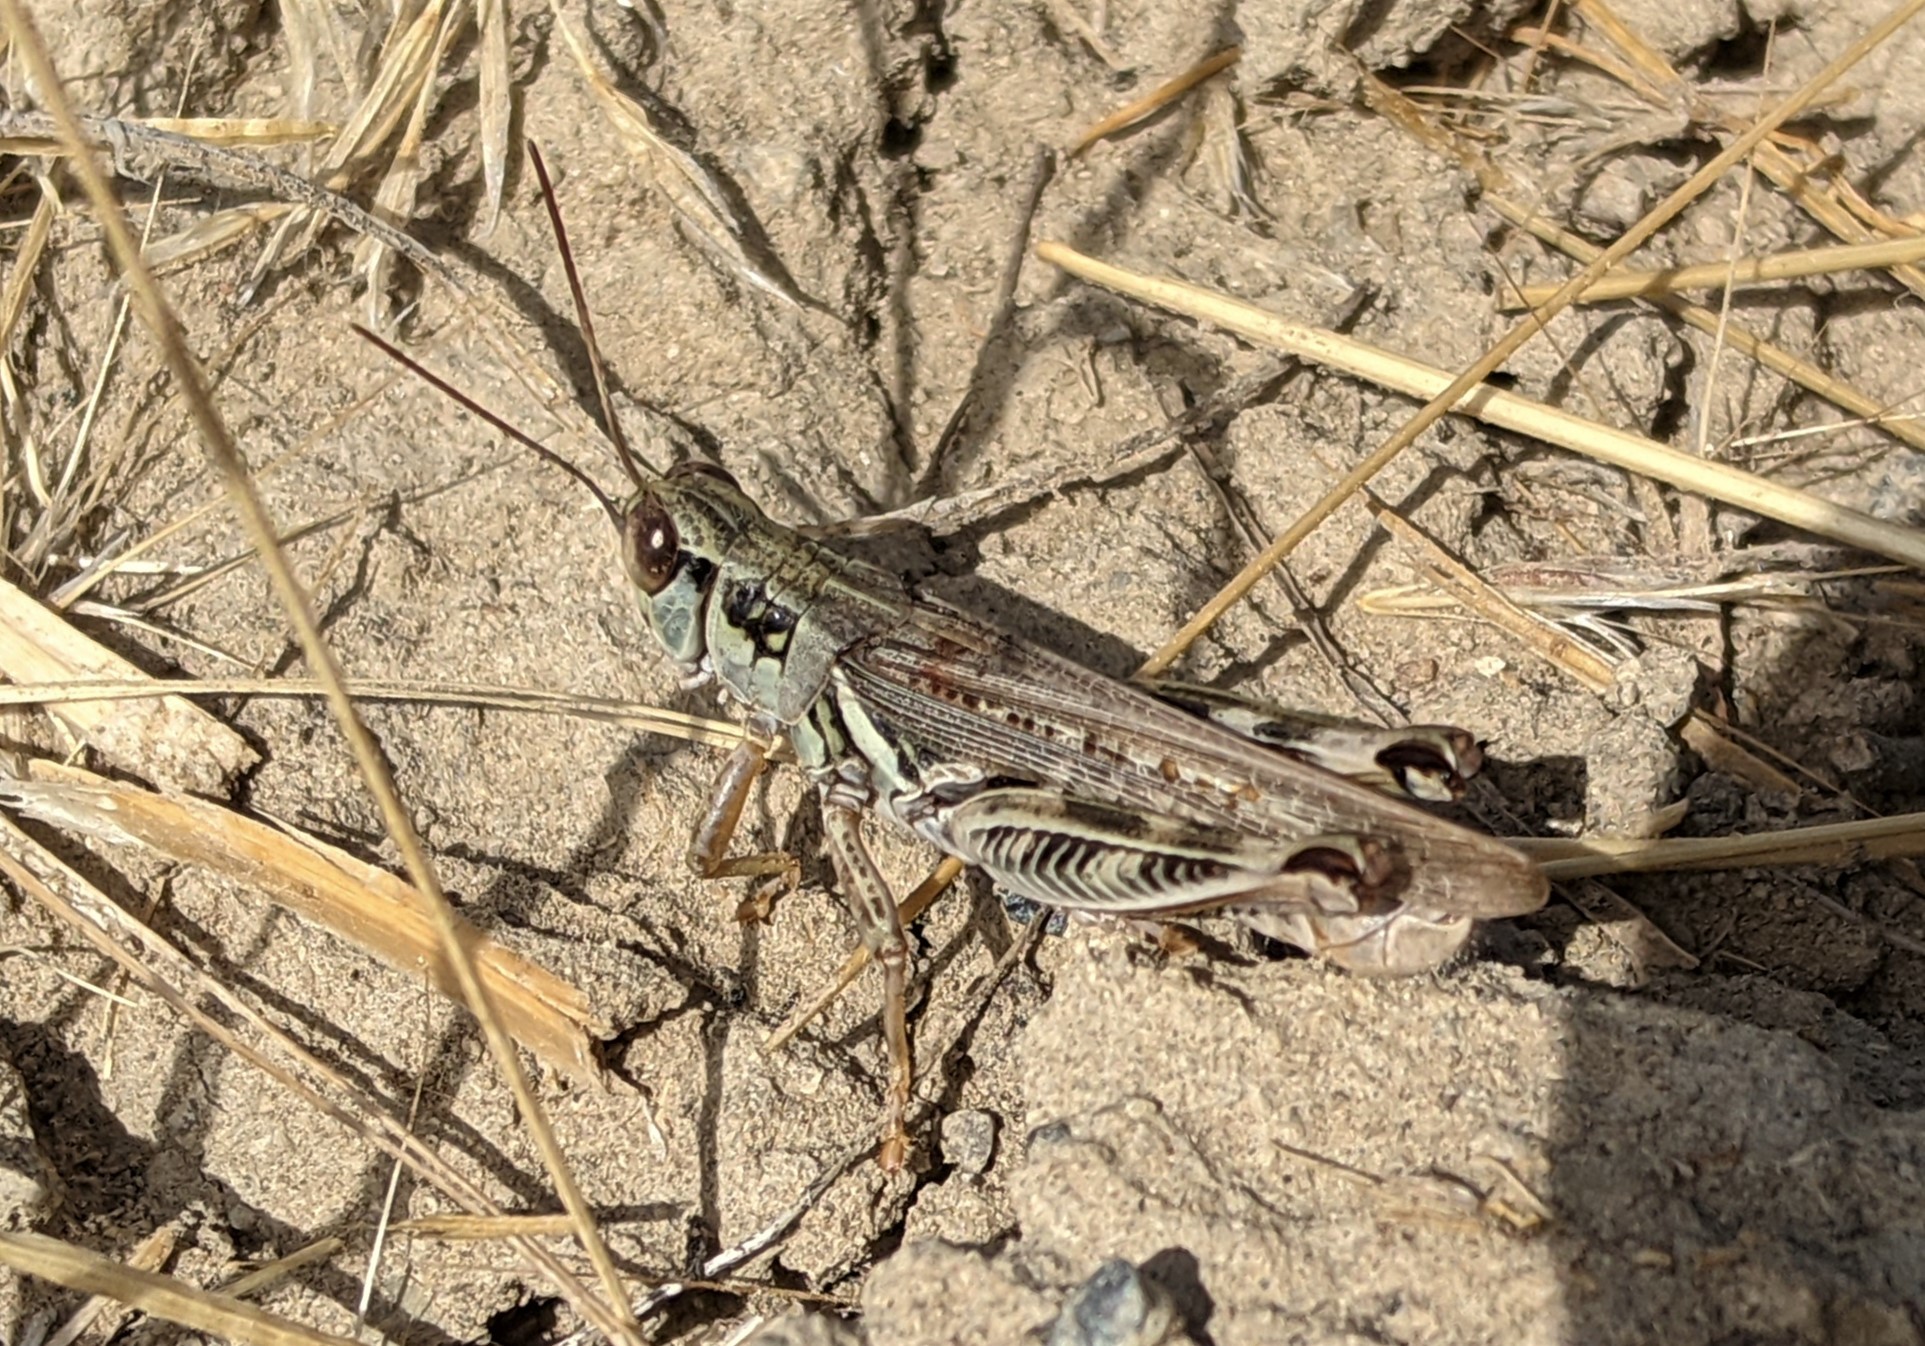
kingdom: Animalia
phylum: Arthropoda
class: Insecta
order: Orthoptera
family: Acrididae
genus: Melanoplus
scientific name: Melanoplus sanguinipes
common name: Migratory grasshopper
